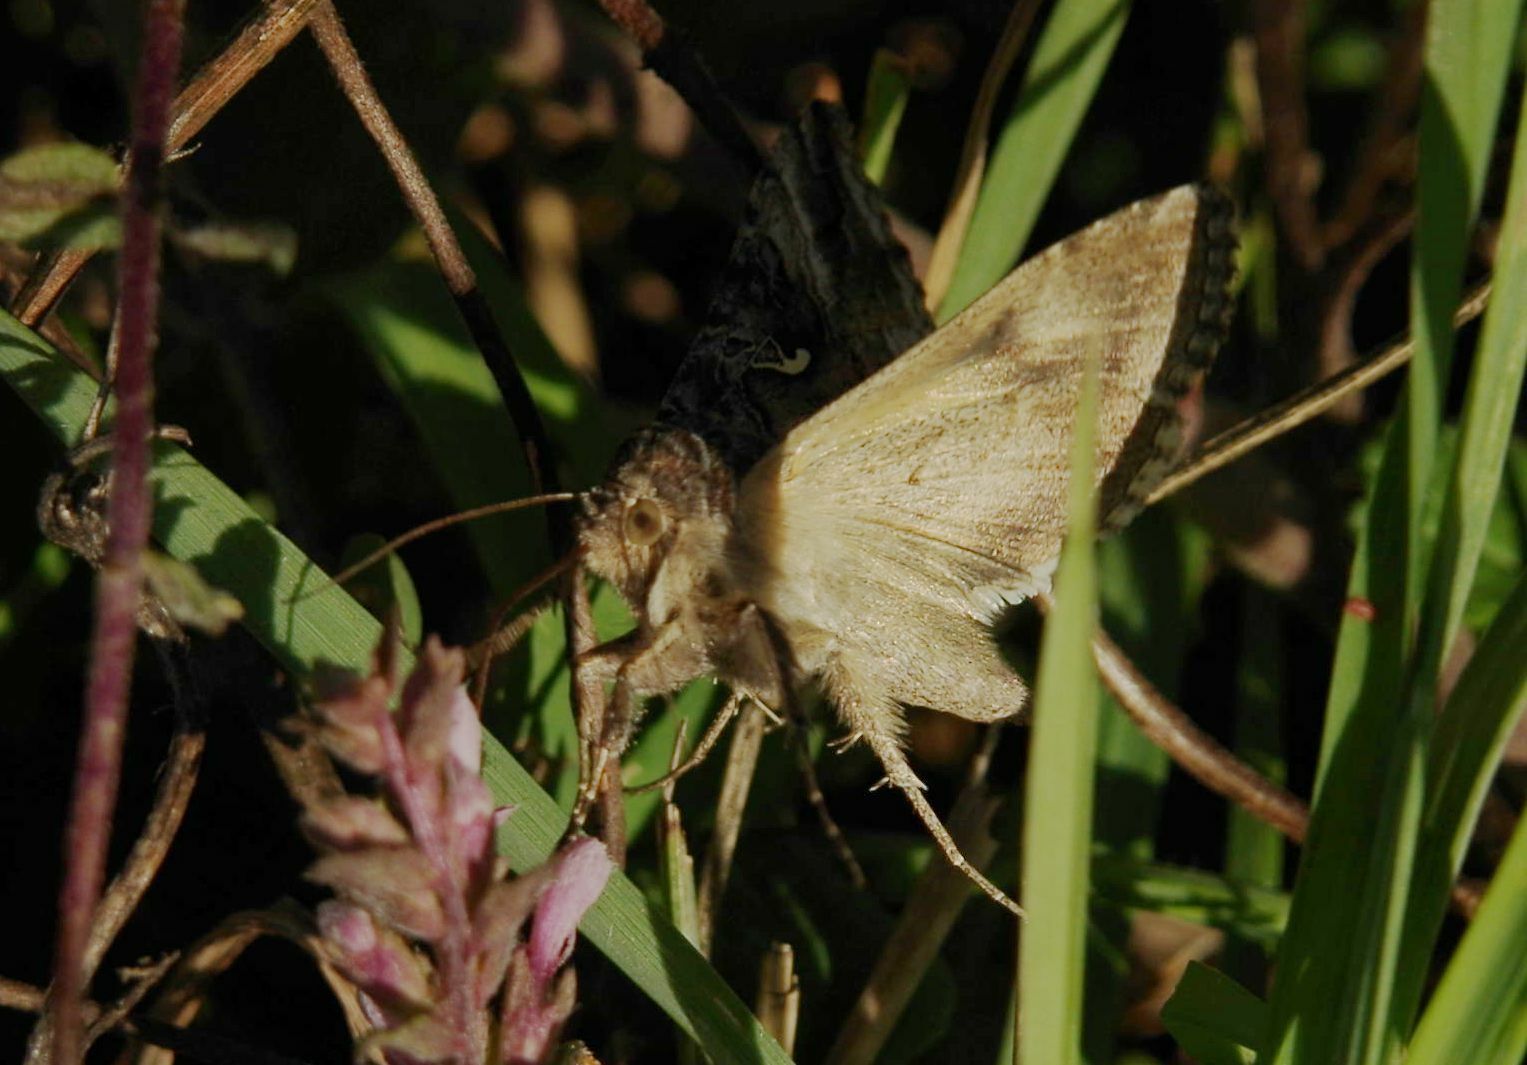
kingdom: Animalia
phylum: Arthropoda
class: Insecta
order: Lepidoptera
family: Noctuidae
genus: Autographa
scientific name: Autographa gamma
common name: Silver y
